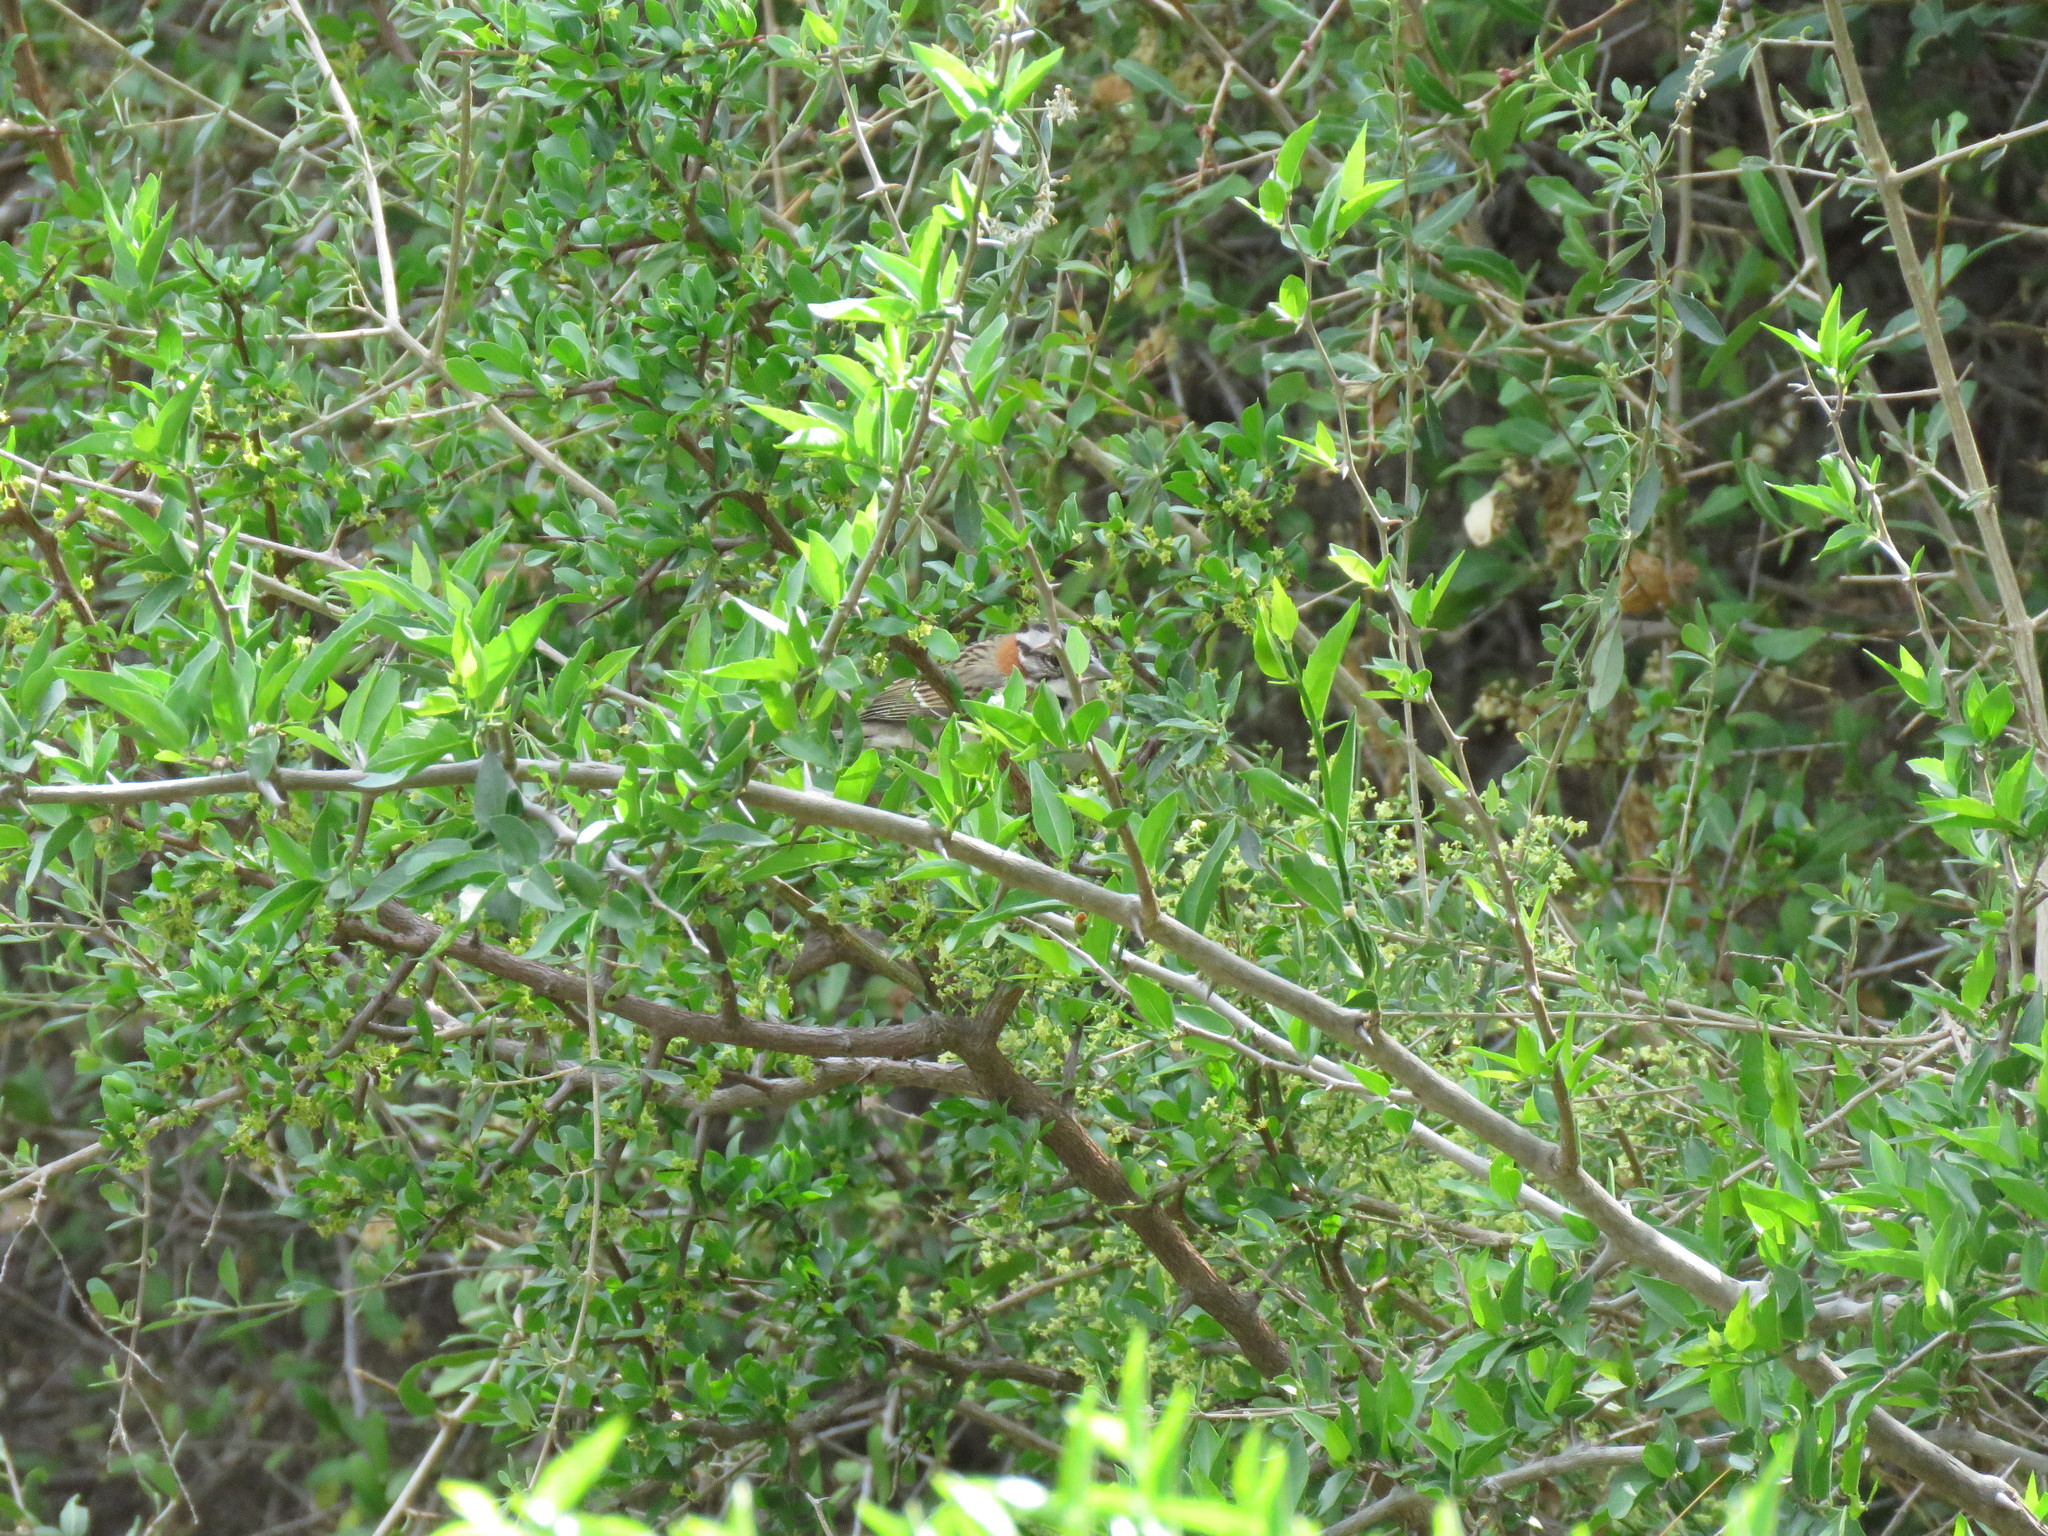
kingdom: Animalia
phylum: Chordata
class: Aves
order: Passeriformes
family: Passerellidae
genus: Zonotrichia
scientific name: Zonotrichia capensis
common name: Rufous-collared sparrow
